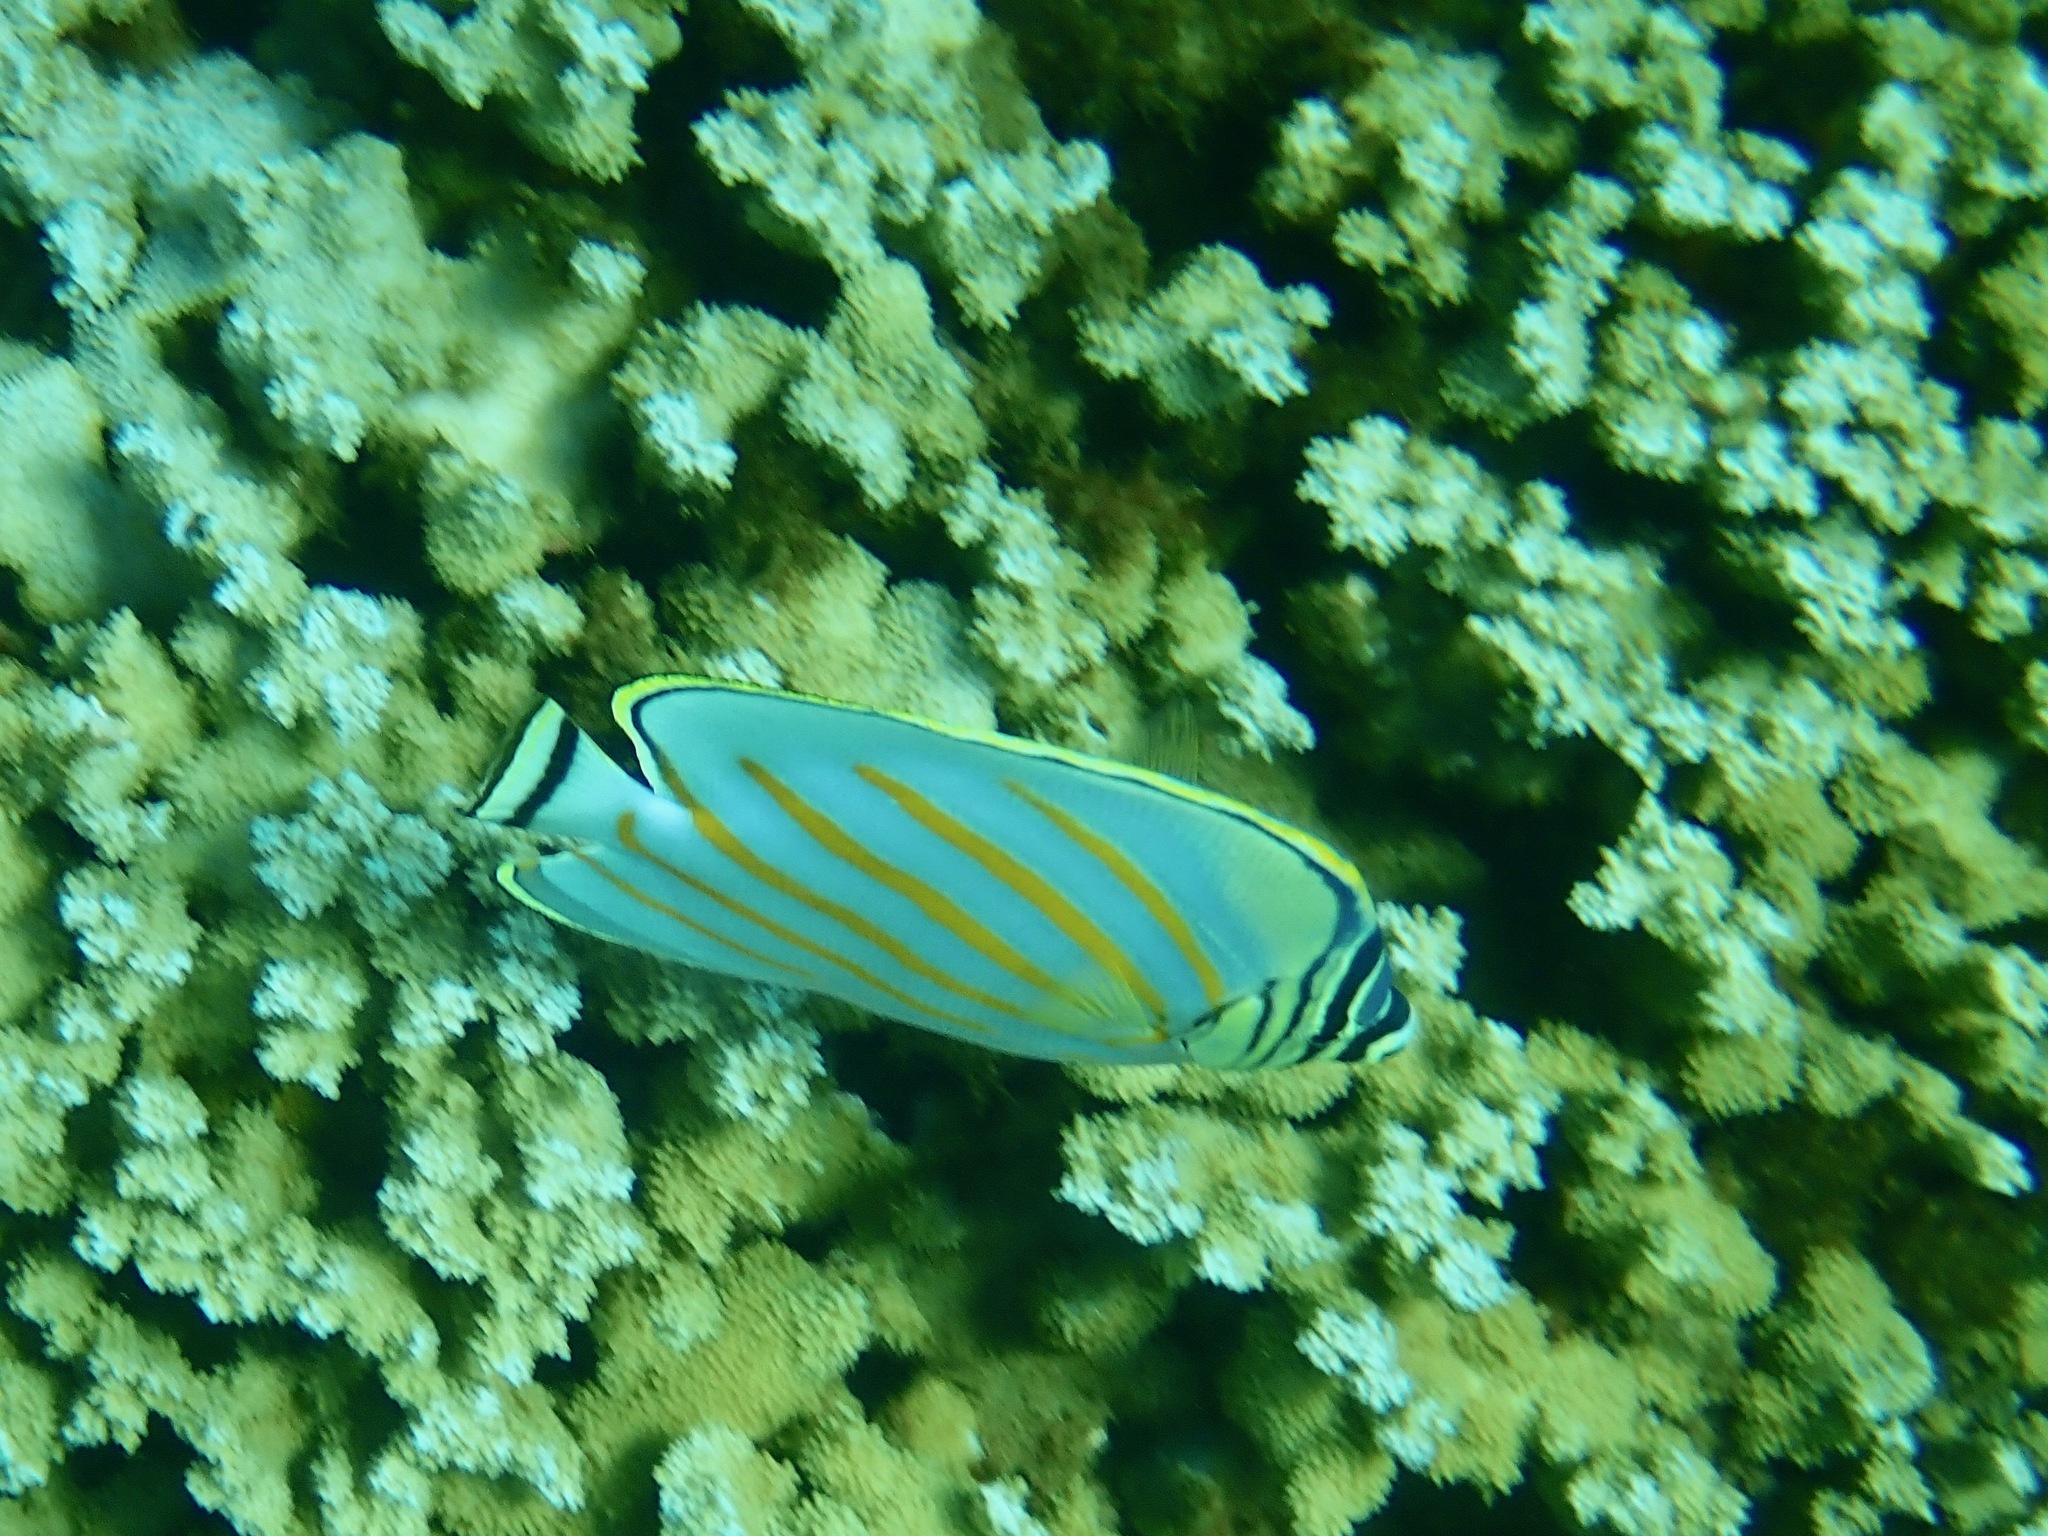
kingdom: Animalia
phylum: Chordata
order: Perciformes
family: Chaetodontidae
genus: Chaetodon
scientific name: Chaetodon ornatissimus
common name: Ornate butterflyfish
